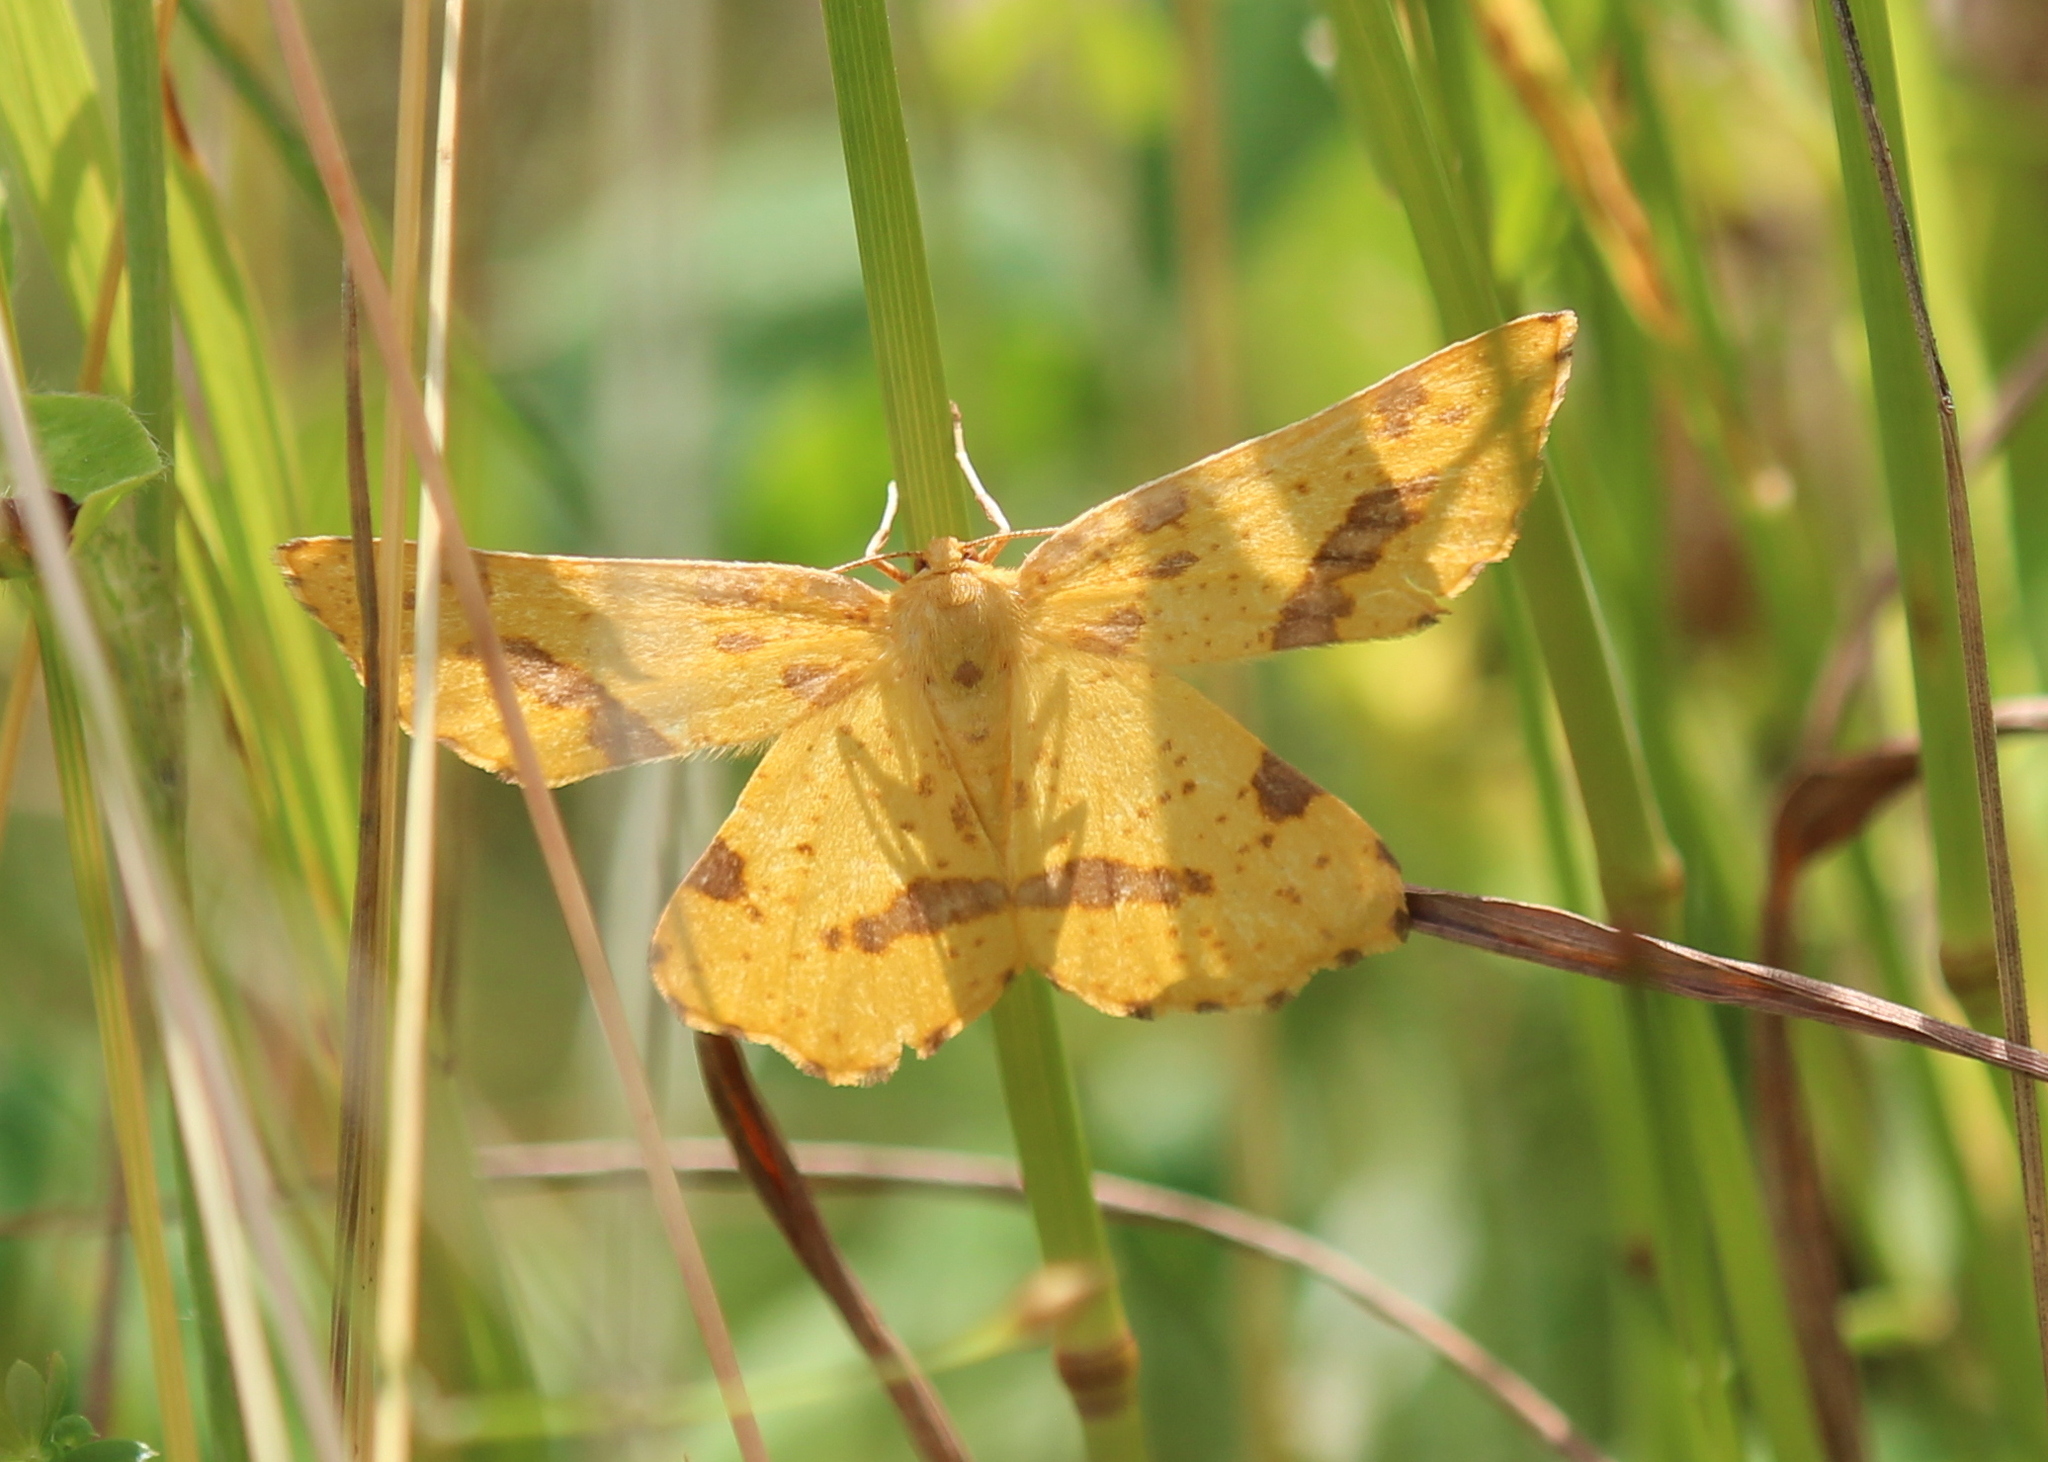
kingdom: Animalia
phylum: Arthropoda
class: Insecta
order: Lepidoptera
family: Geometridae
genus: Xanthotype
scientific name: Xanthotype
